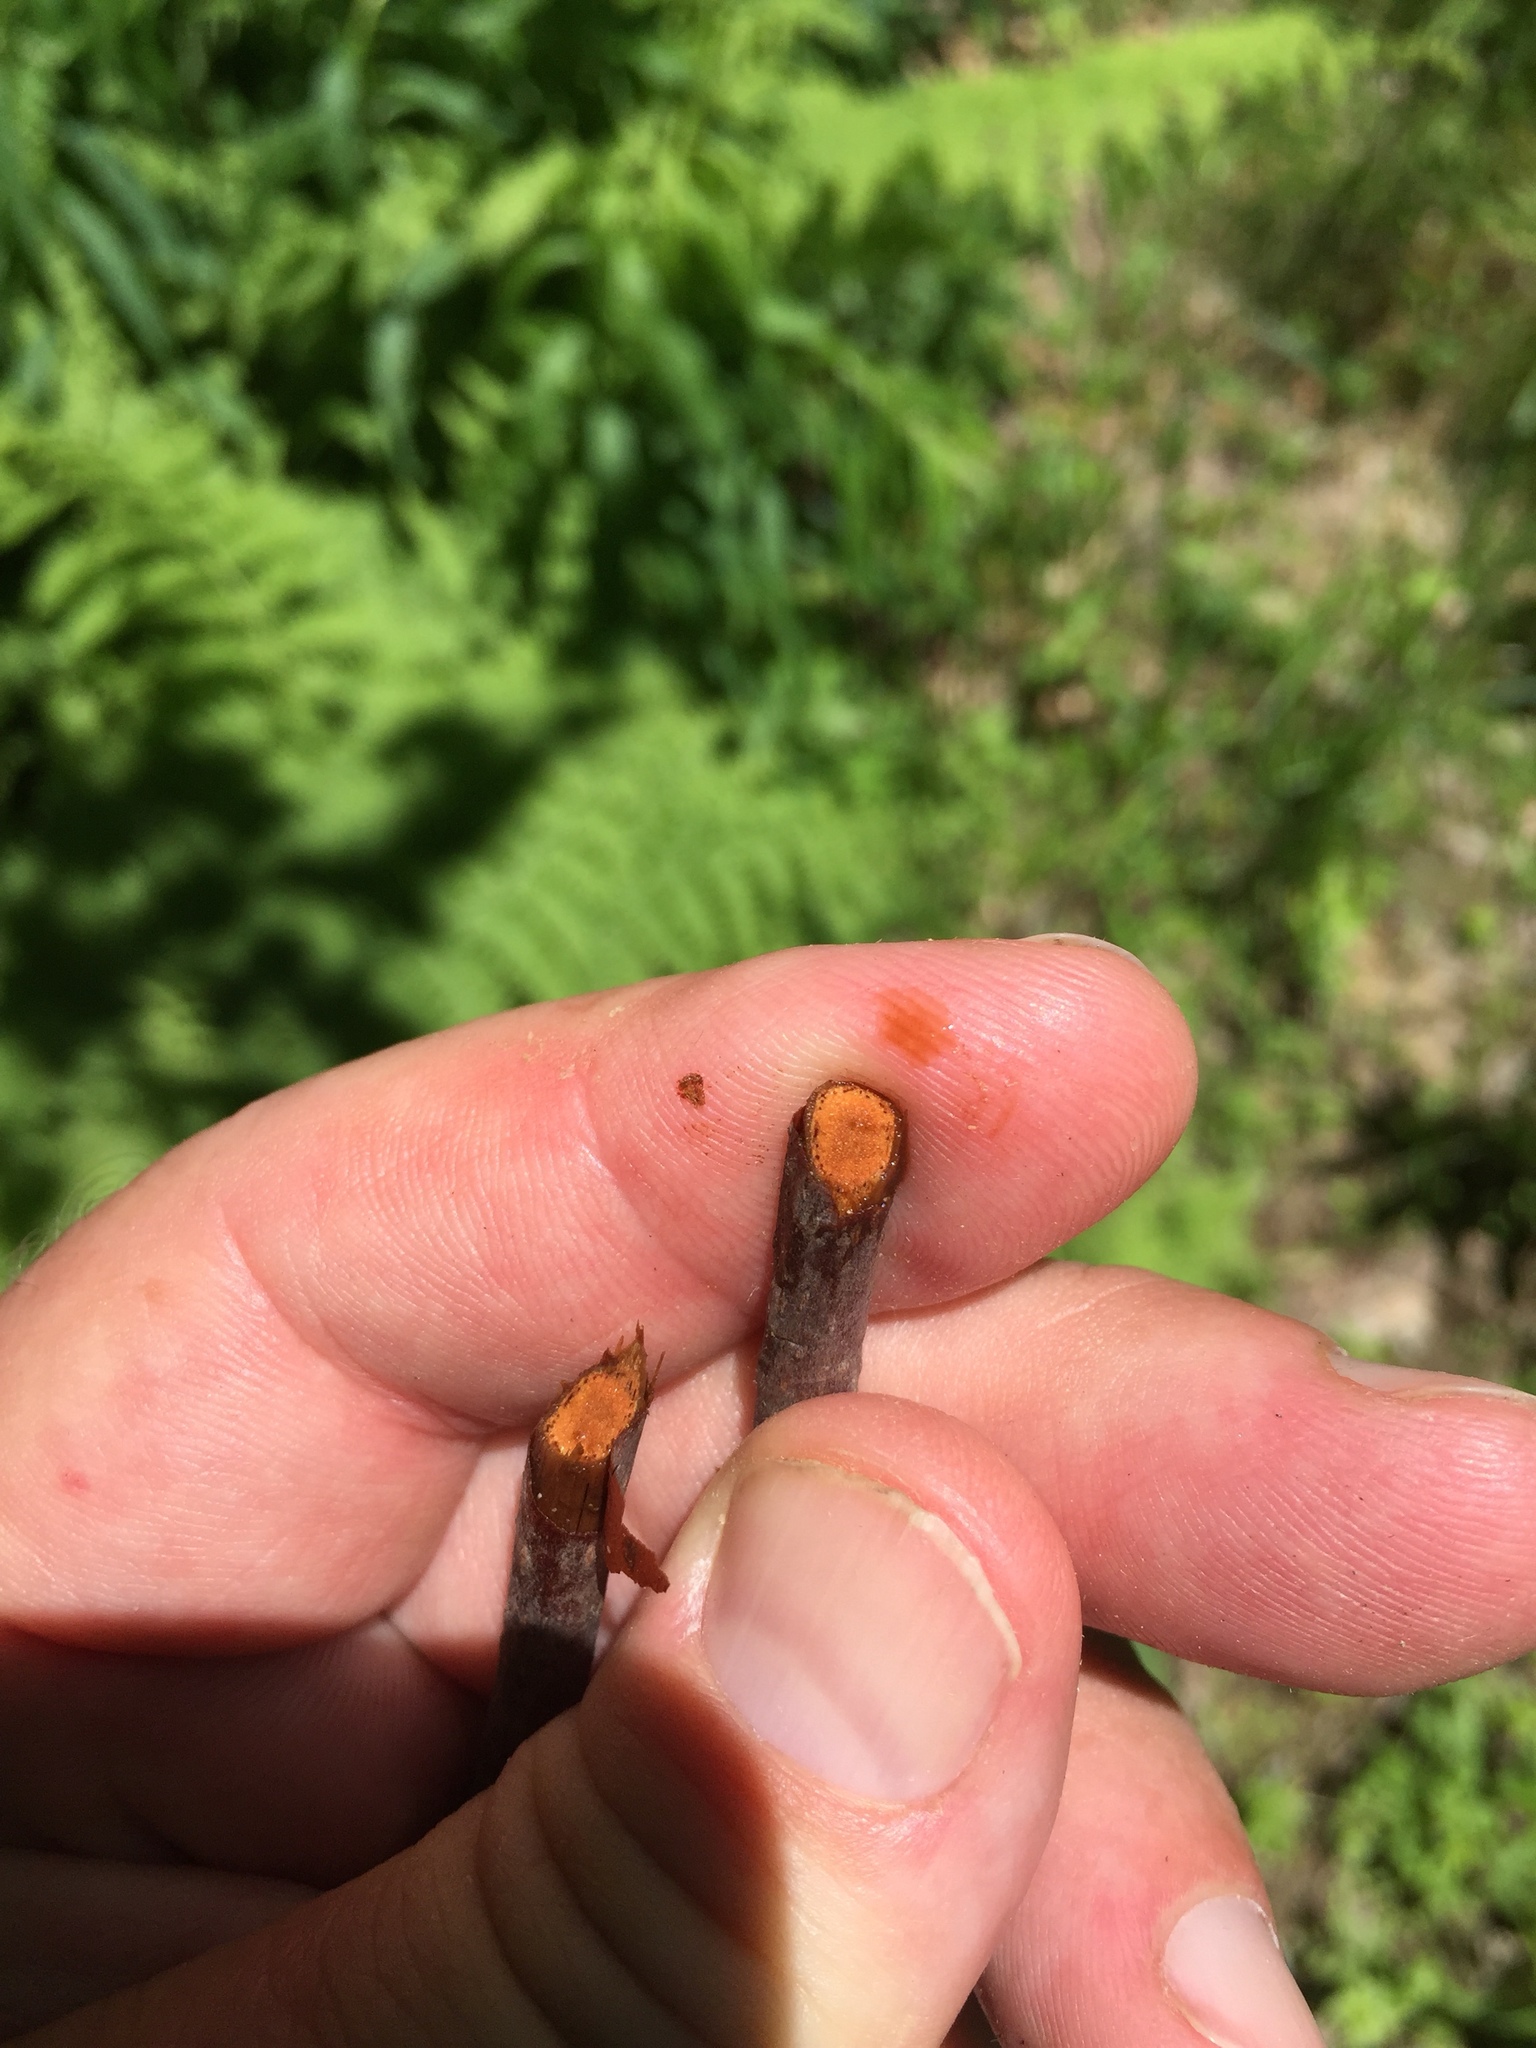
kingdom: Plantae
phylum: Tracheophyta
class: Magnoliopsida
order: Dipsacales
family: Viburnaceae
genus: Sambucus
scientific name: Sambucus racemosa
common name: Red-berried elder
